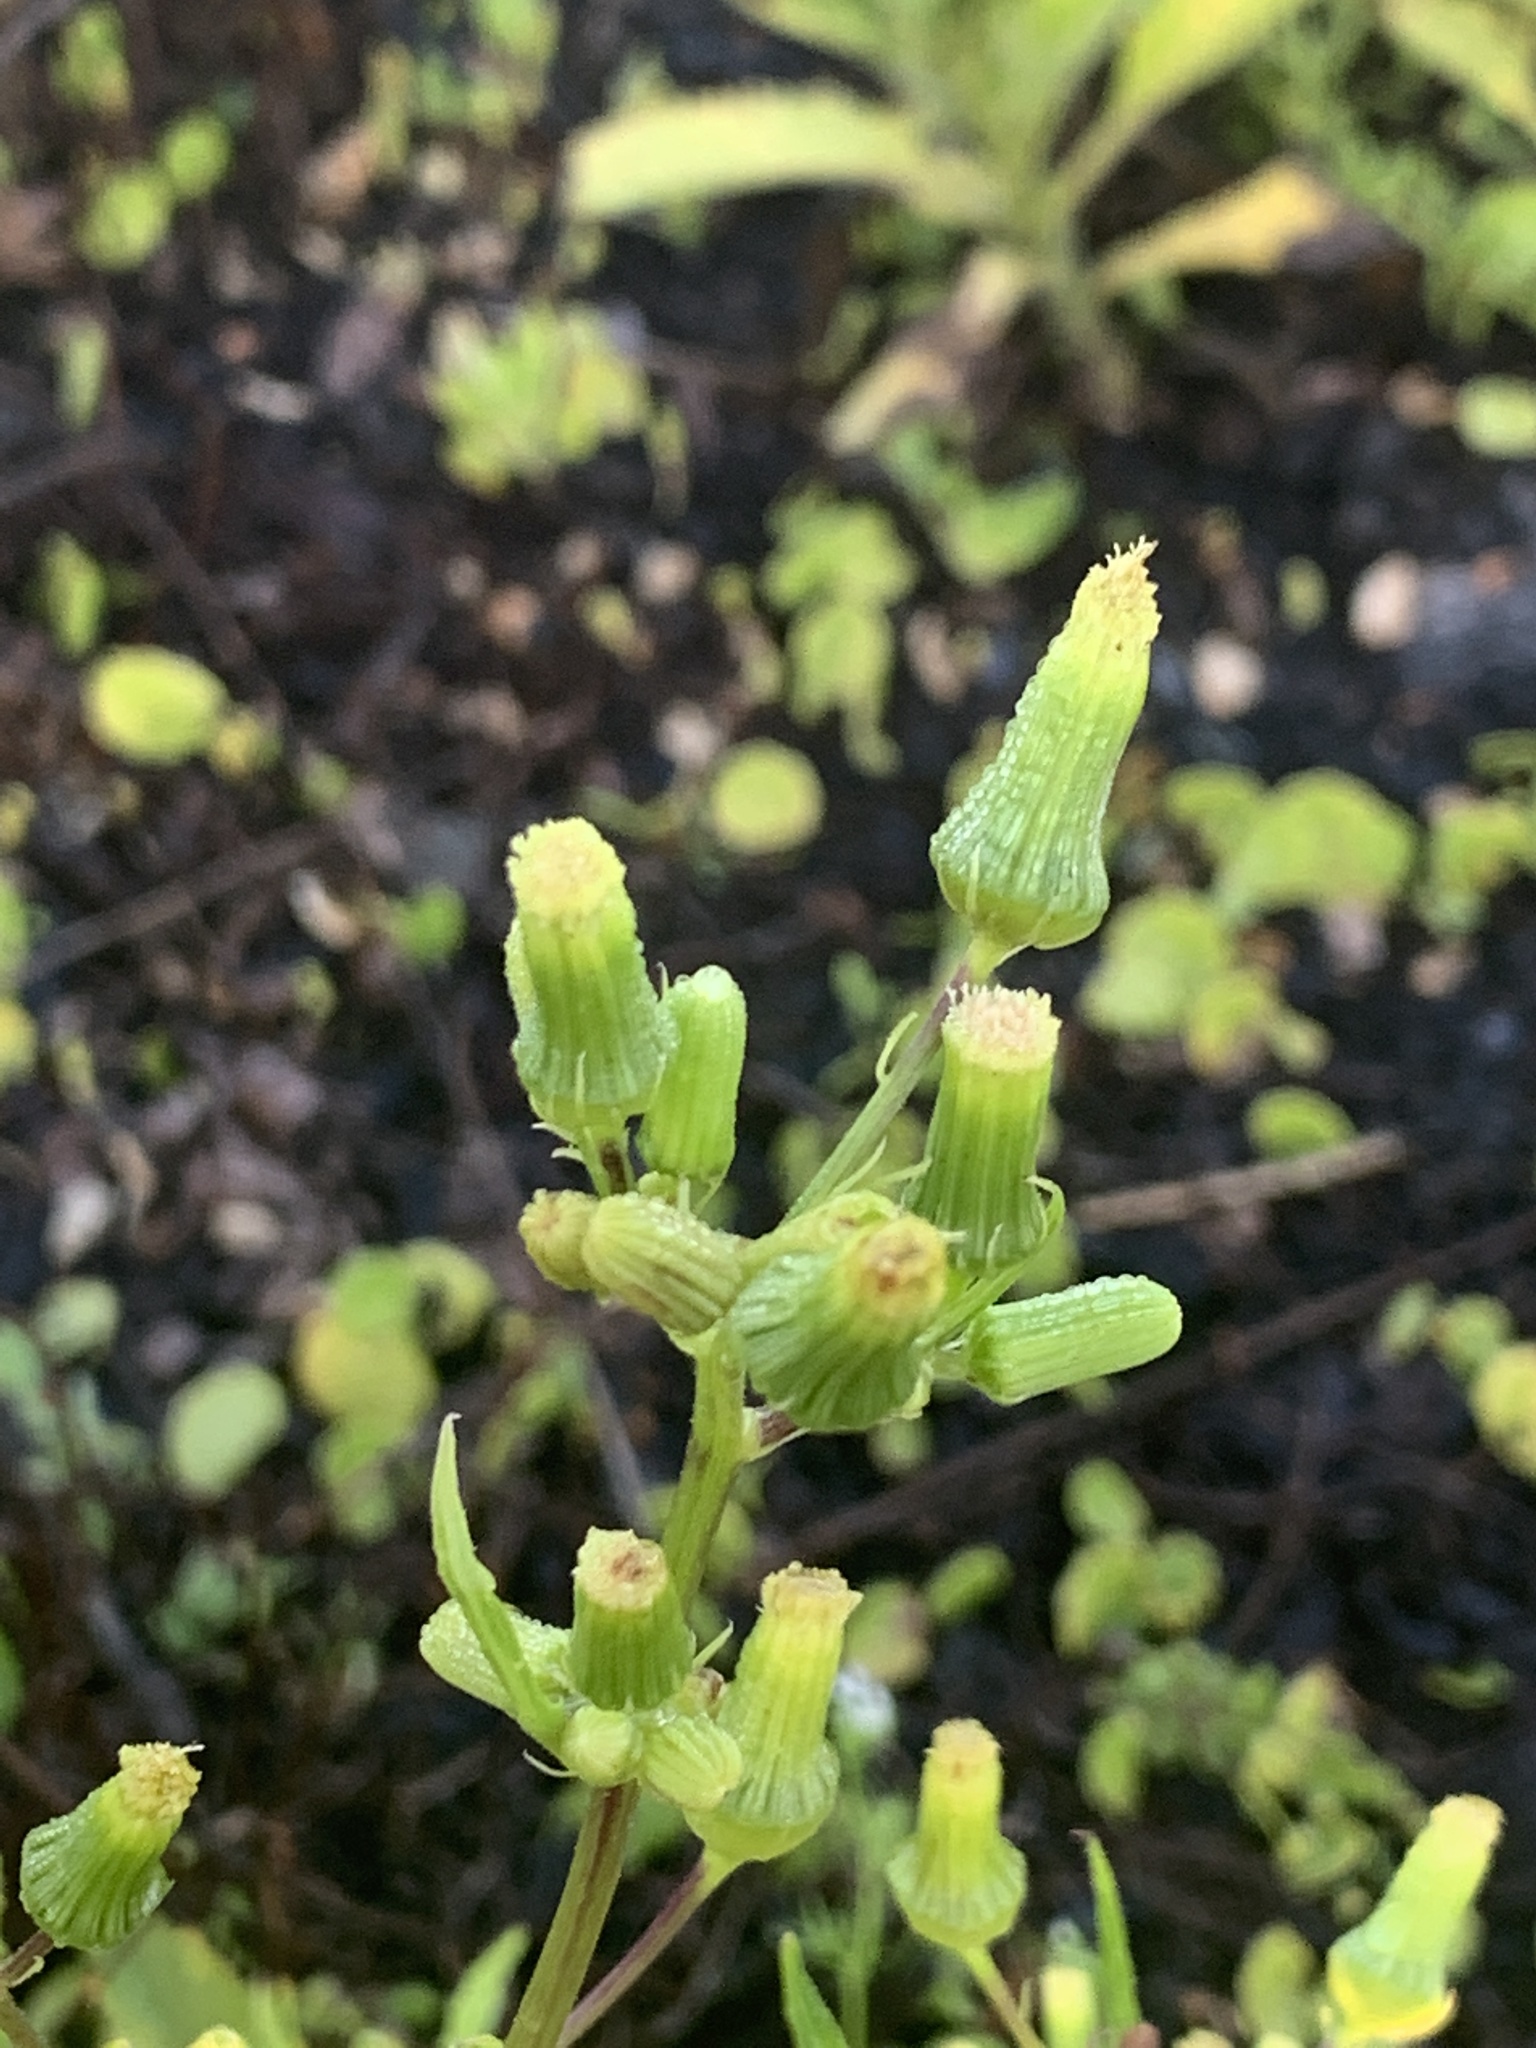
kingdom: Plantae
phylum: Tracheophyta
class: Magnoliopsida
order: Asterales
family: Asteraceae
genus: Erechtites
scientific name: Erechtites hieraciifolius
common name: American burnweed
